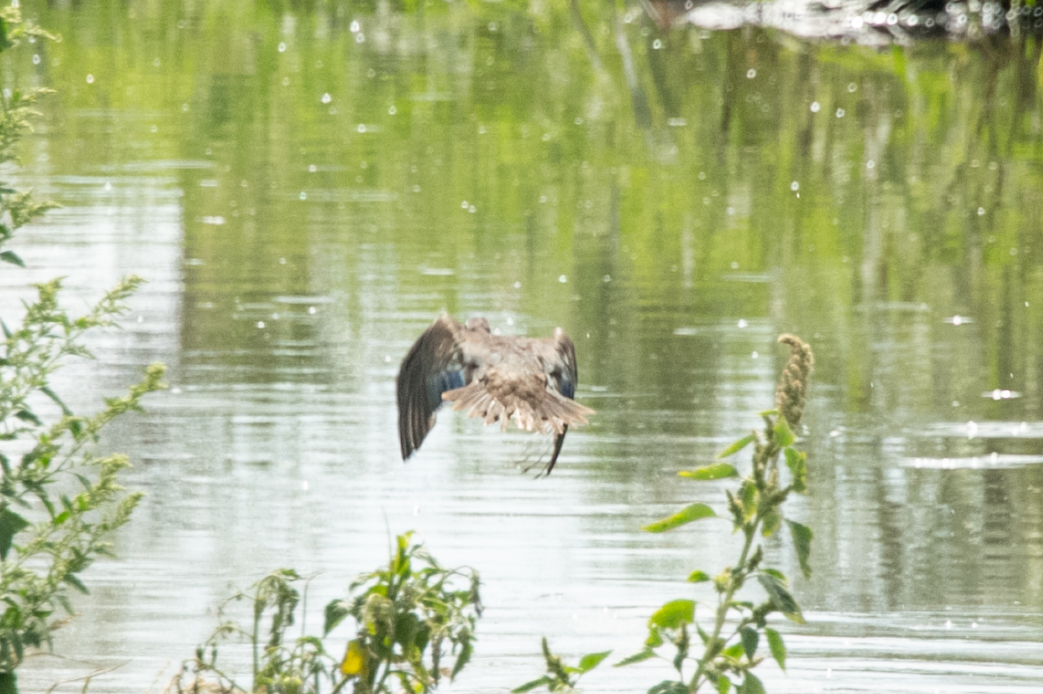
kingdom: Animalia
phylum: Chordata
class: Aves
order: Anseriformes
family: Anatidae
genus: Aix
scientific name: Aix galericulata
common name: Mandarin duck
